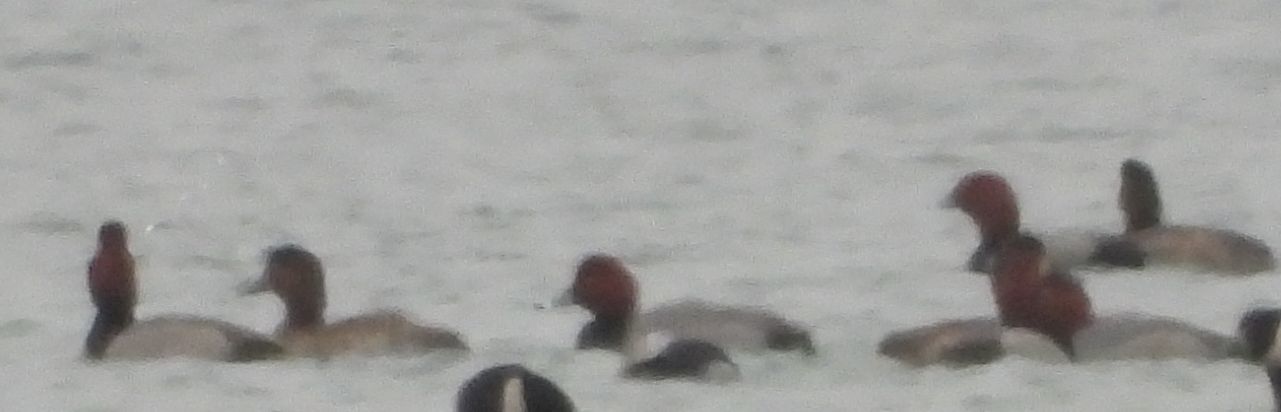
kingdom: Animalia
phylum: Chordata
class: Aves
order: Anseriformes
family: Anatidae
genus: Aythya
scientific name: Aythya americana
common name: Redhead
